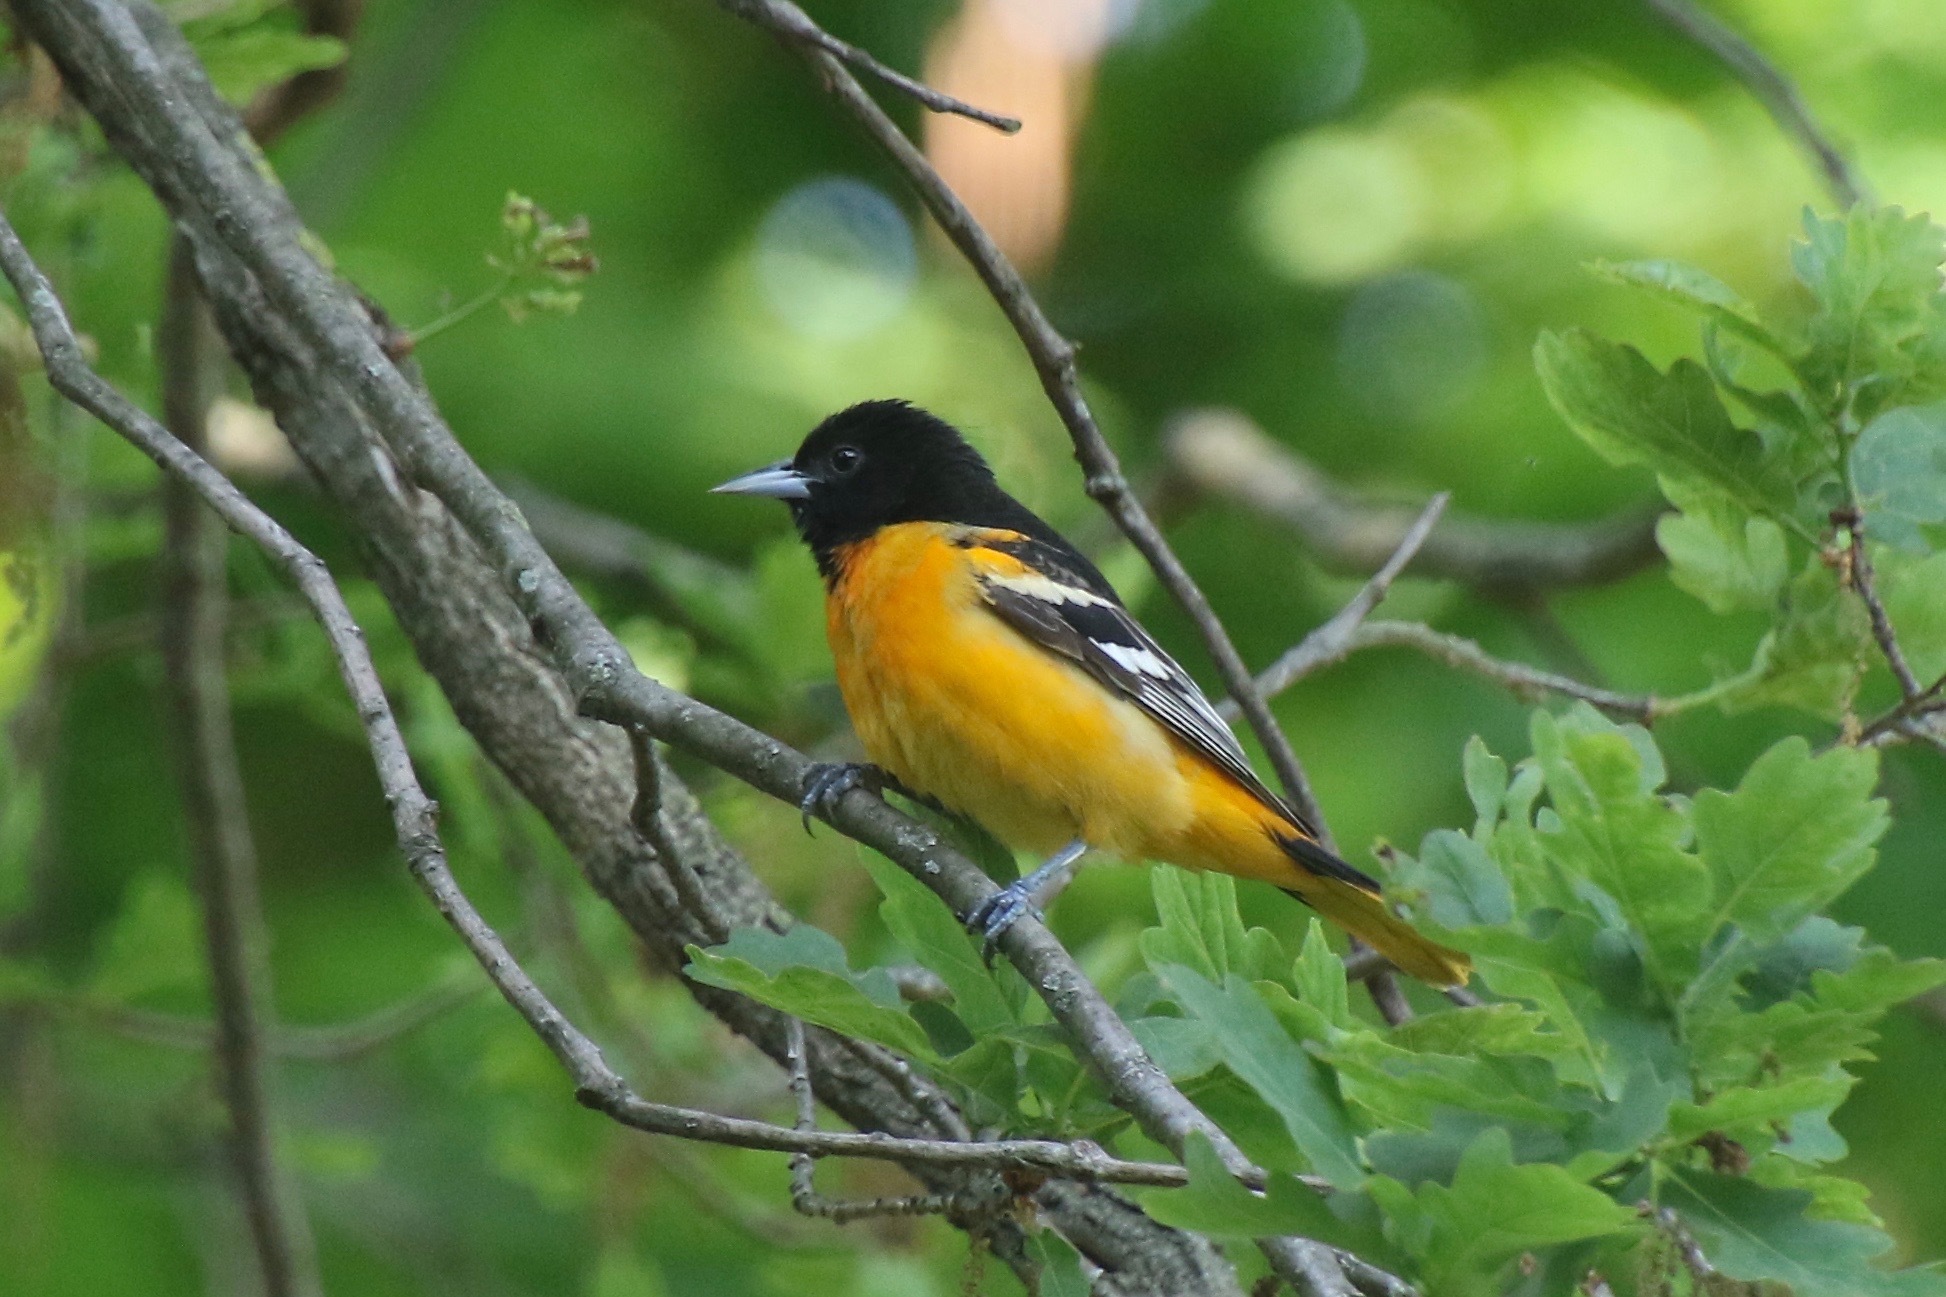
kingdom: Animalia
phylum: Chordata
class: Aves
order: Passeriformes
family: Icteridae
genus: Icterus
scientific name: Icterus galbula
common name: Baltimore oriole
